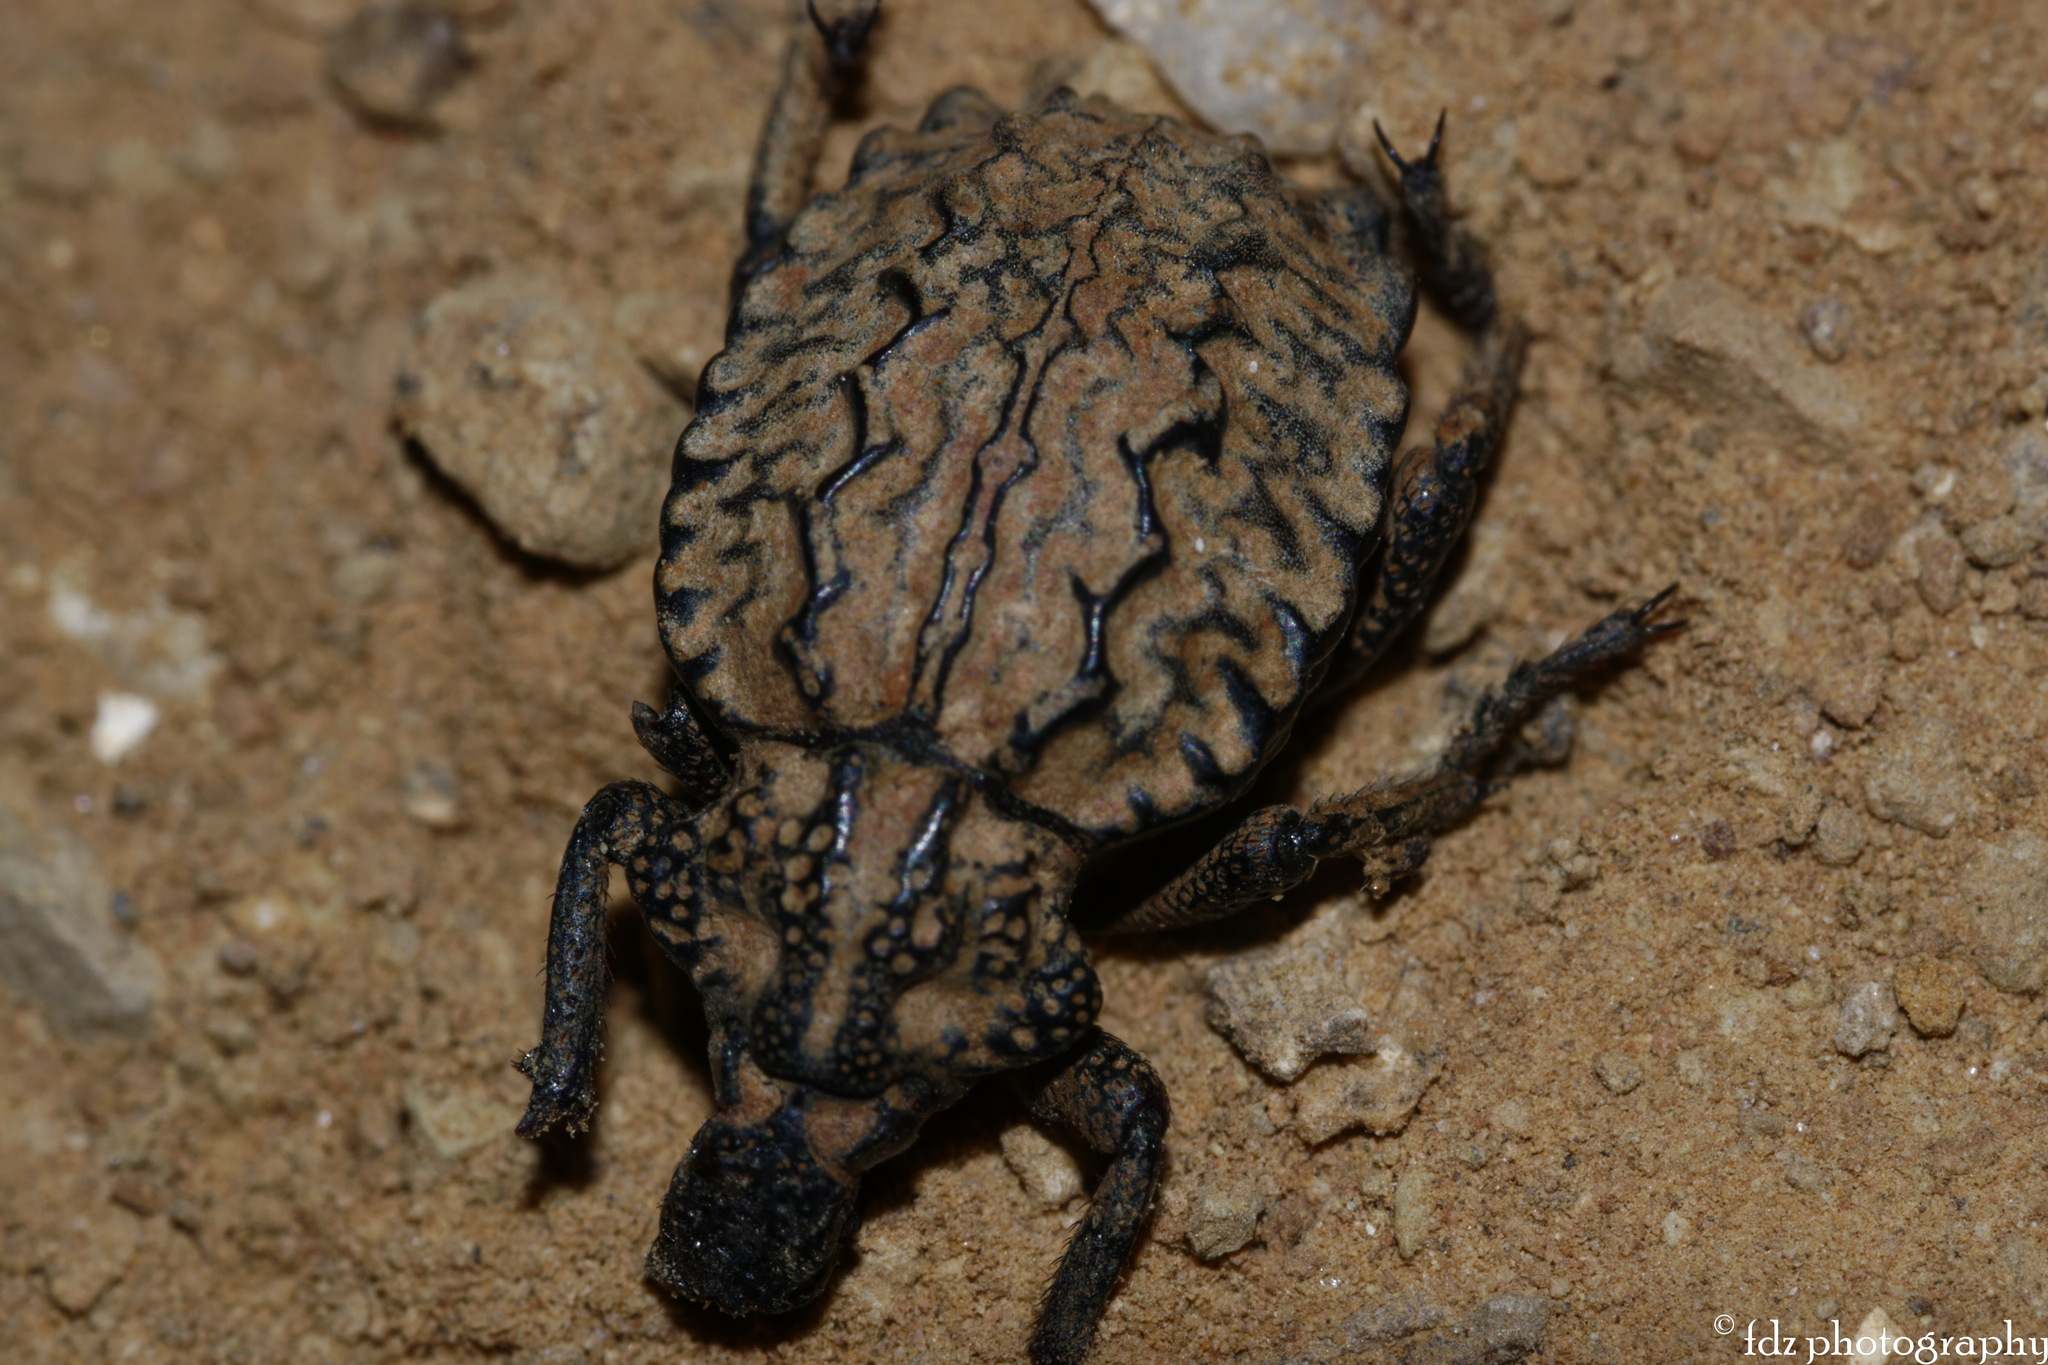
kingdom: Animalia
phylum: Arthropoda
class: Insecta
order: Coleoptera
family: Brachyceridae
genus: Brachycerus
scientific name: Brachycerus barbarus
